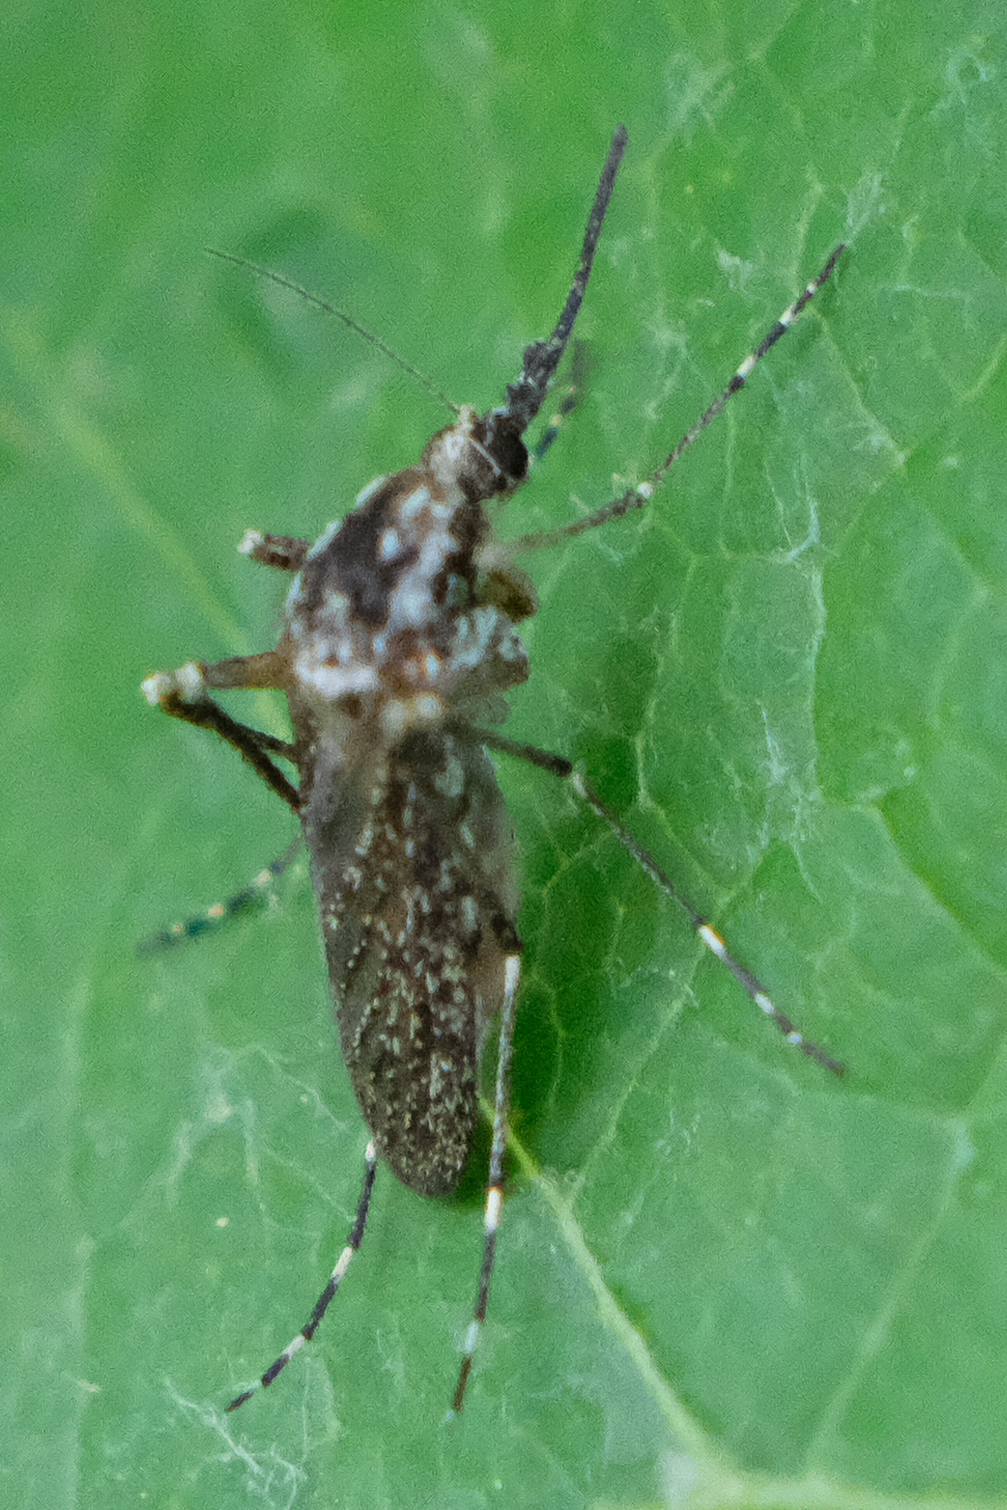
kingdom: Animalia
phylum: Arthropoda
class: Insecta
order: Diptera
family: Culicidae
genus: Aedes
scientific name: Aedes grossbecki
